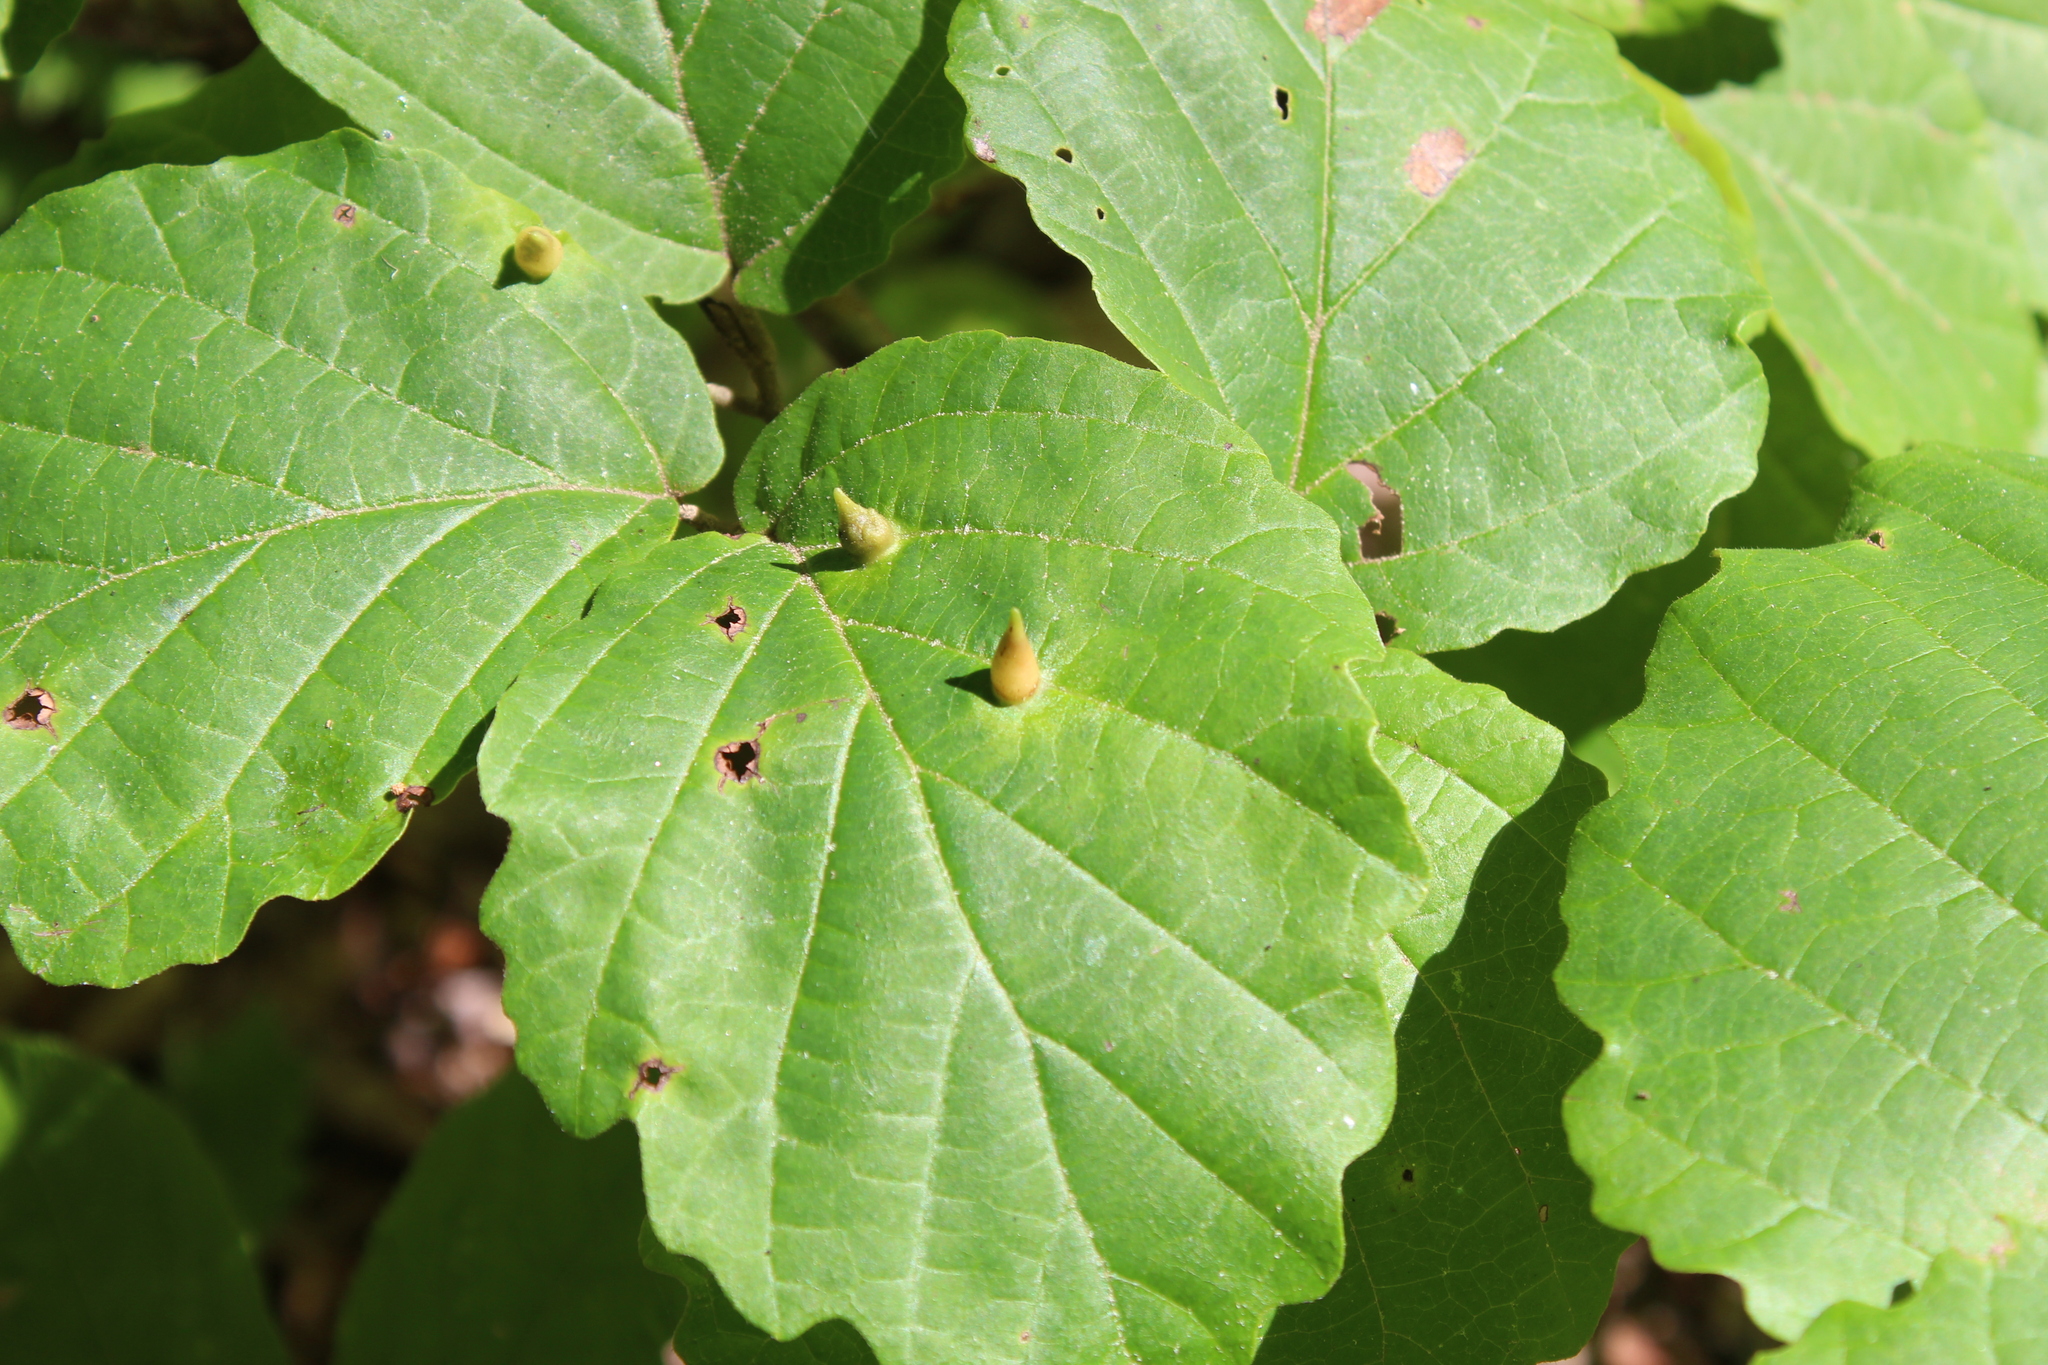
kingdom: Animalia
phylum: Arthropoda
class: Insecta
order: Hemiptera
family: Aphididae
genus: Hormaphis
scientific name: Hormaphis hamamelidis
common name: Witch-hazel cone gall aphid
